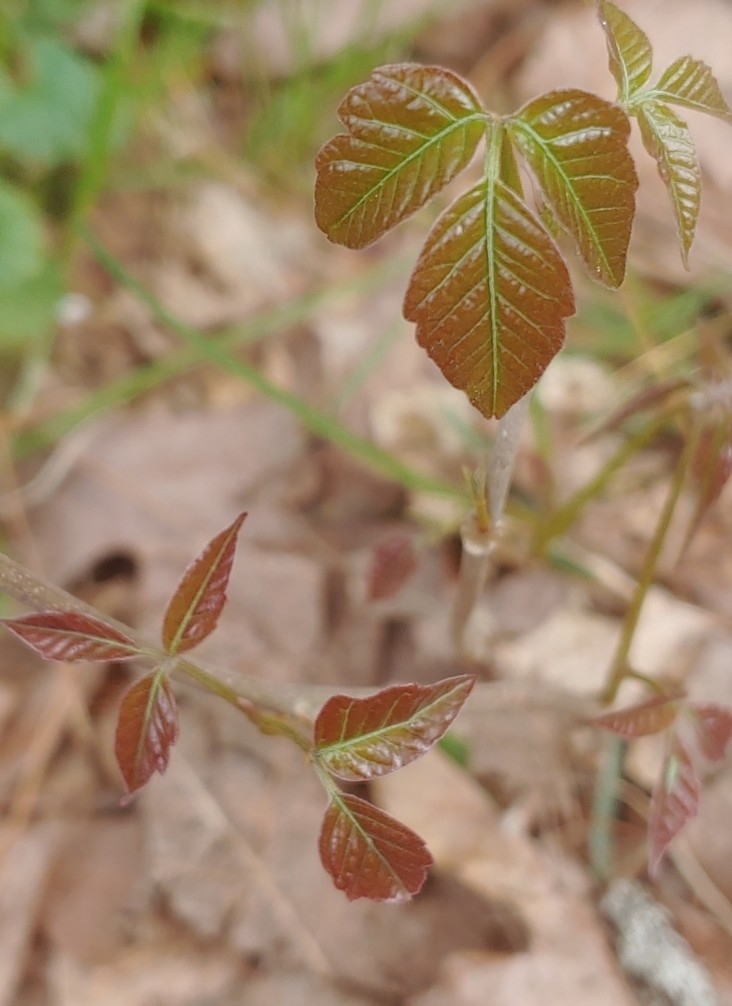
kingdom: Plantae
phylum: Tracheophyta
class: Magnoliopsida
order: Sapindales
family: Anacardiaceae
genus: Toxicodendron
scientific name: Toxicodendron radicans
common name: Poison ivy
